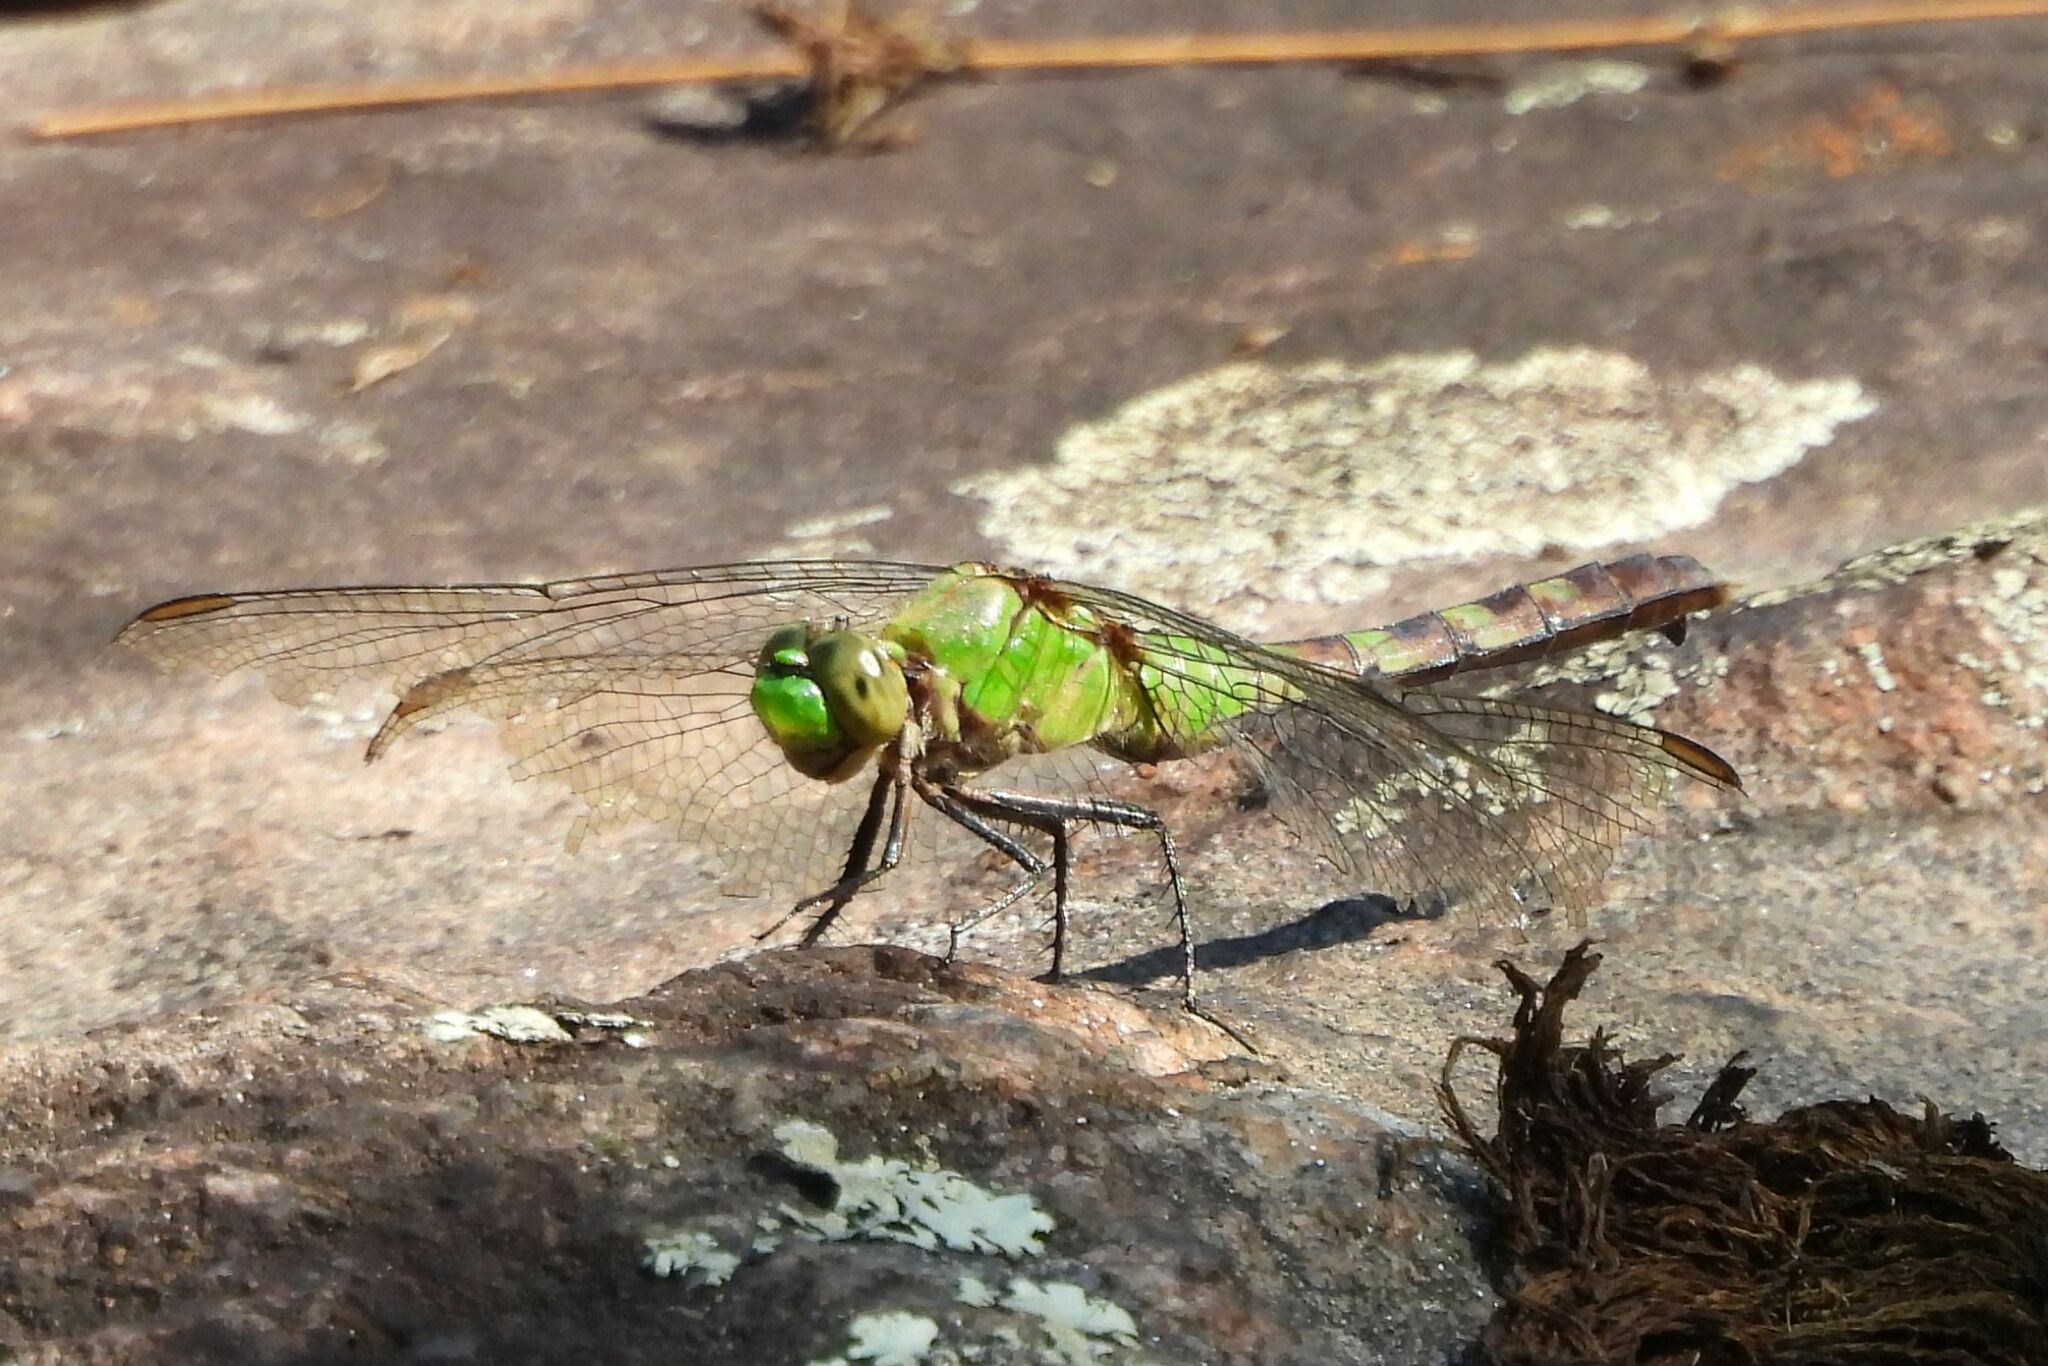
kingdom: Animalia
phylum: Arthropoda
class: Insecta
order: Odonata
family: Libellulidae
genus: Erythemis
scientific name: Erythemis simplicicollis
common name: Eastern pondhawk
